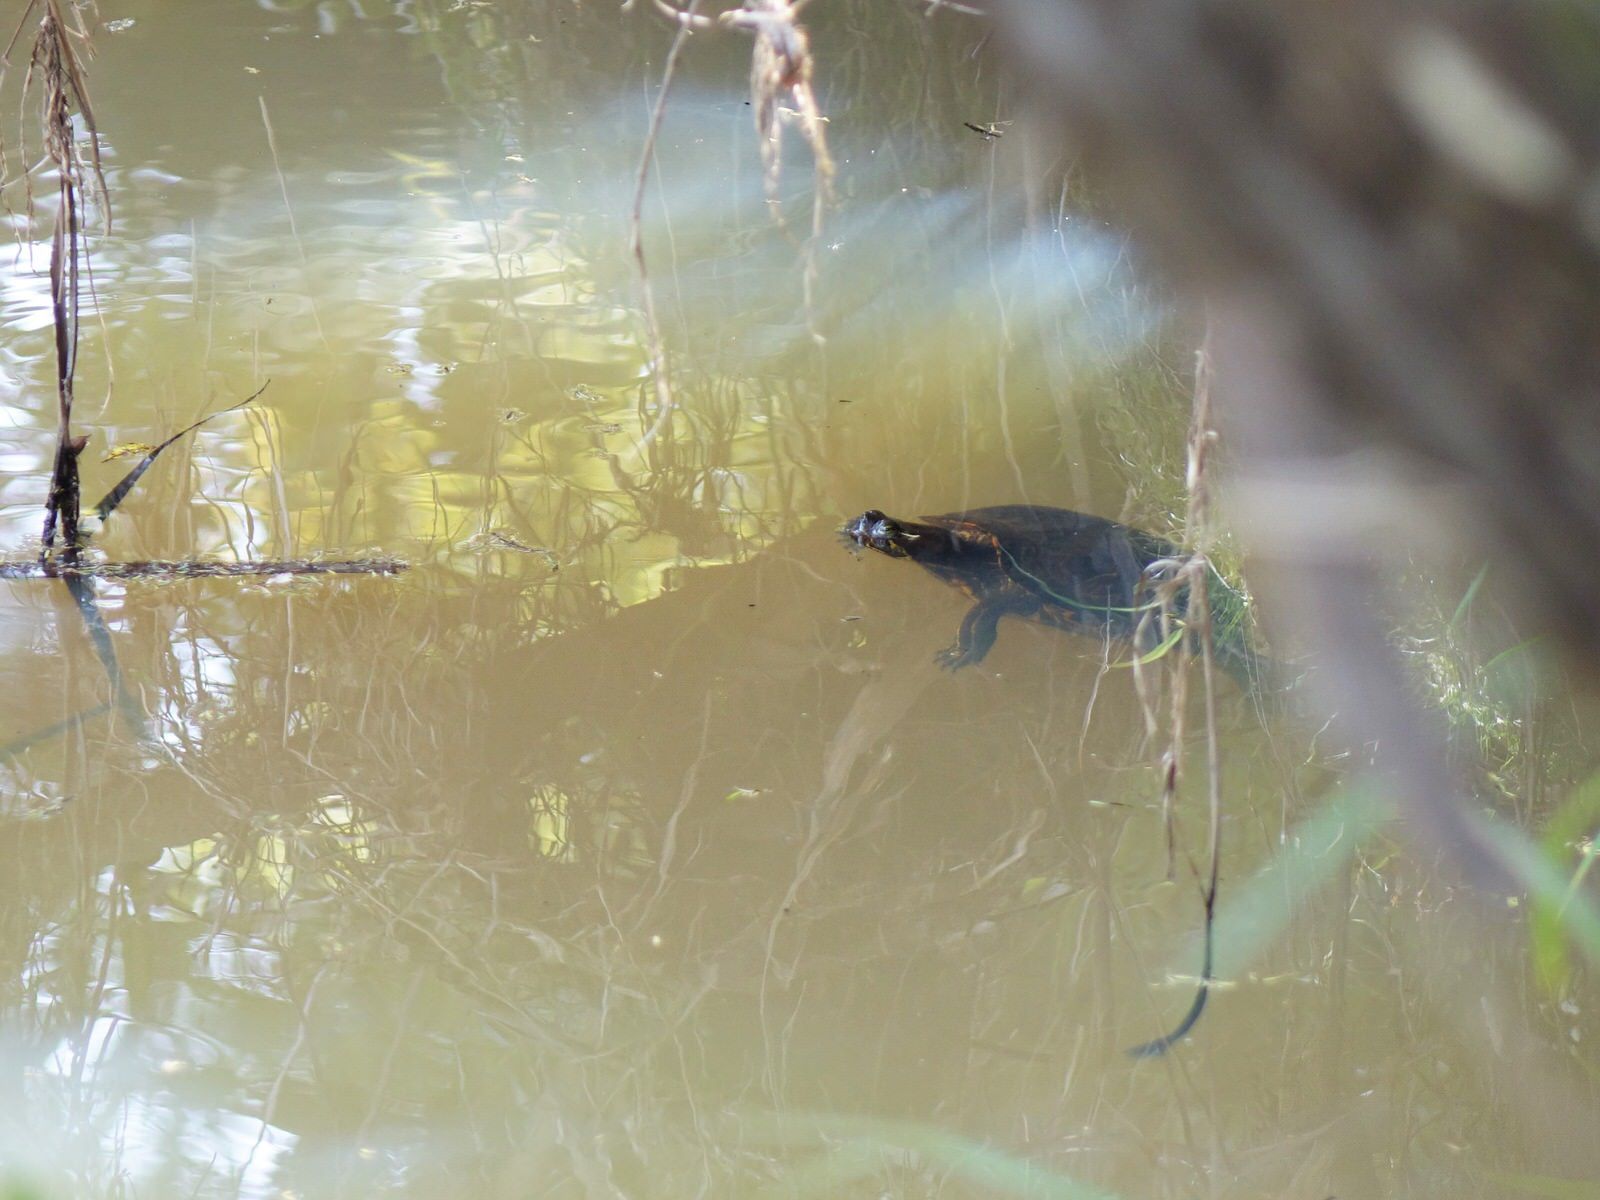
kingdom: Animalia
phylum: Chordata
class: Testudines
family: Emydidae
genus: Trachemys
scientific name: Trachemys scripta
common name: Slider
